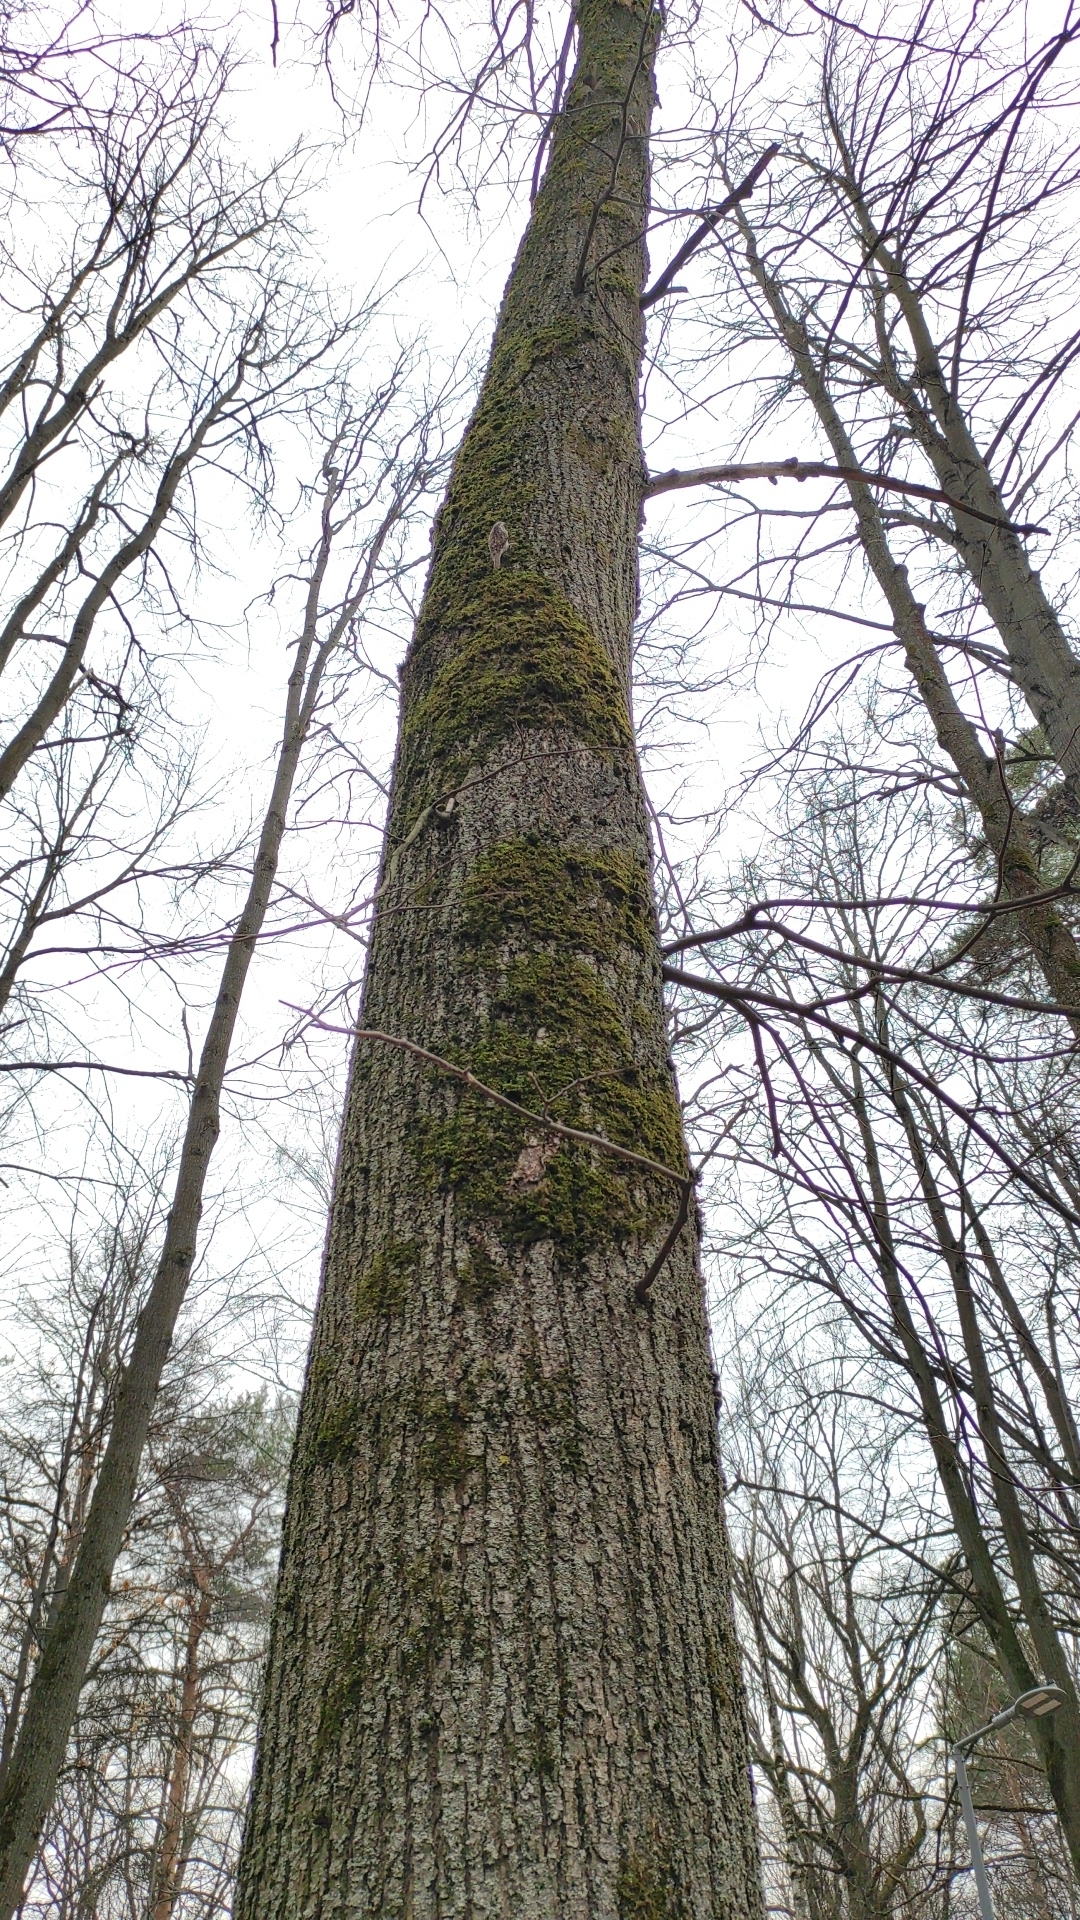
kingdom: Animalia
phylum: Chordata
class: Aves
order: Passeriformes
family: Certhiidae
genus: Certhia
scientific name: Certhia familiaris
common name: Eurasian treecreeper
